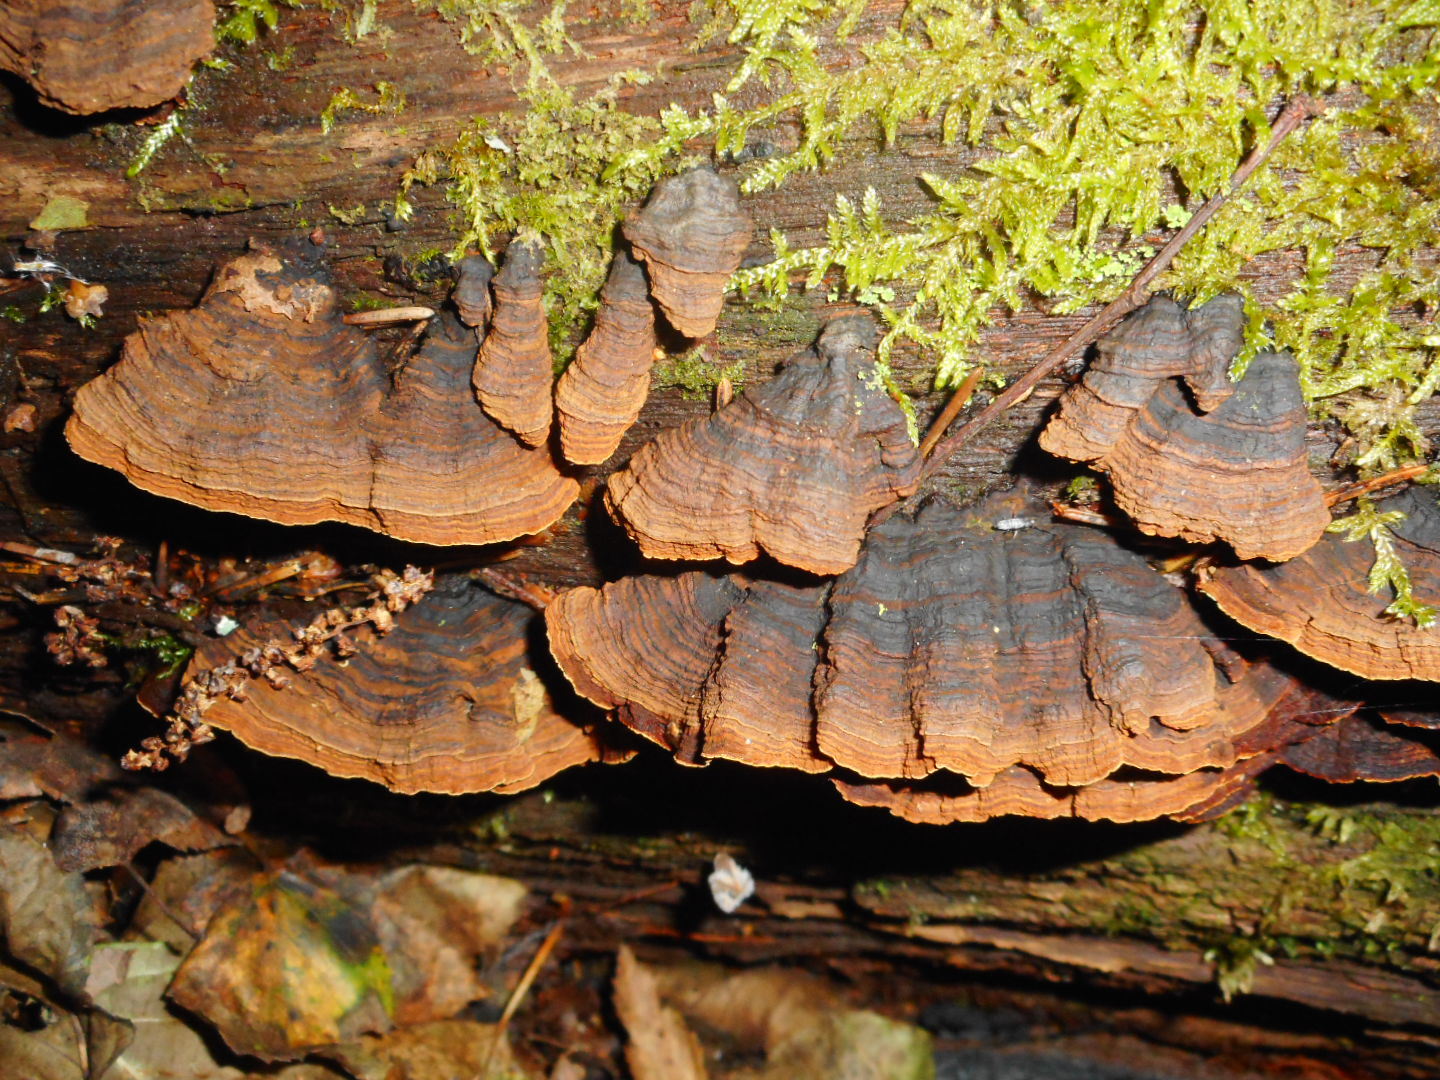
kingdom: Fungi
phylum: Basidiomycota
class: Agaricomycetes
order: Hymenochaetales
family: Hymenochaetaceae
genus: Hymenochaete
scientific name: Hymenochaete rubiginosa
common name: Oak curtain crust
